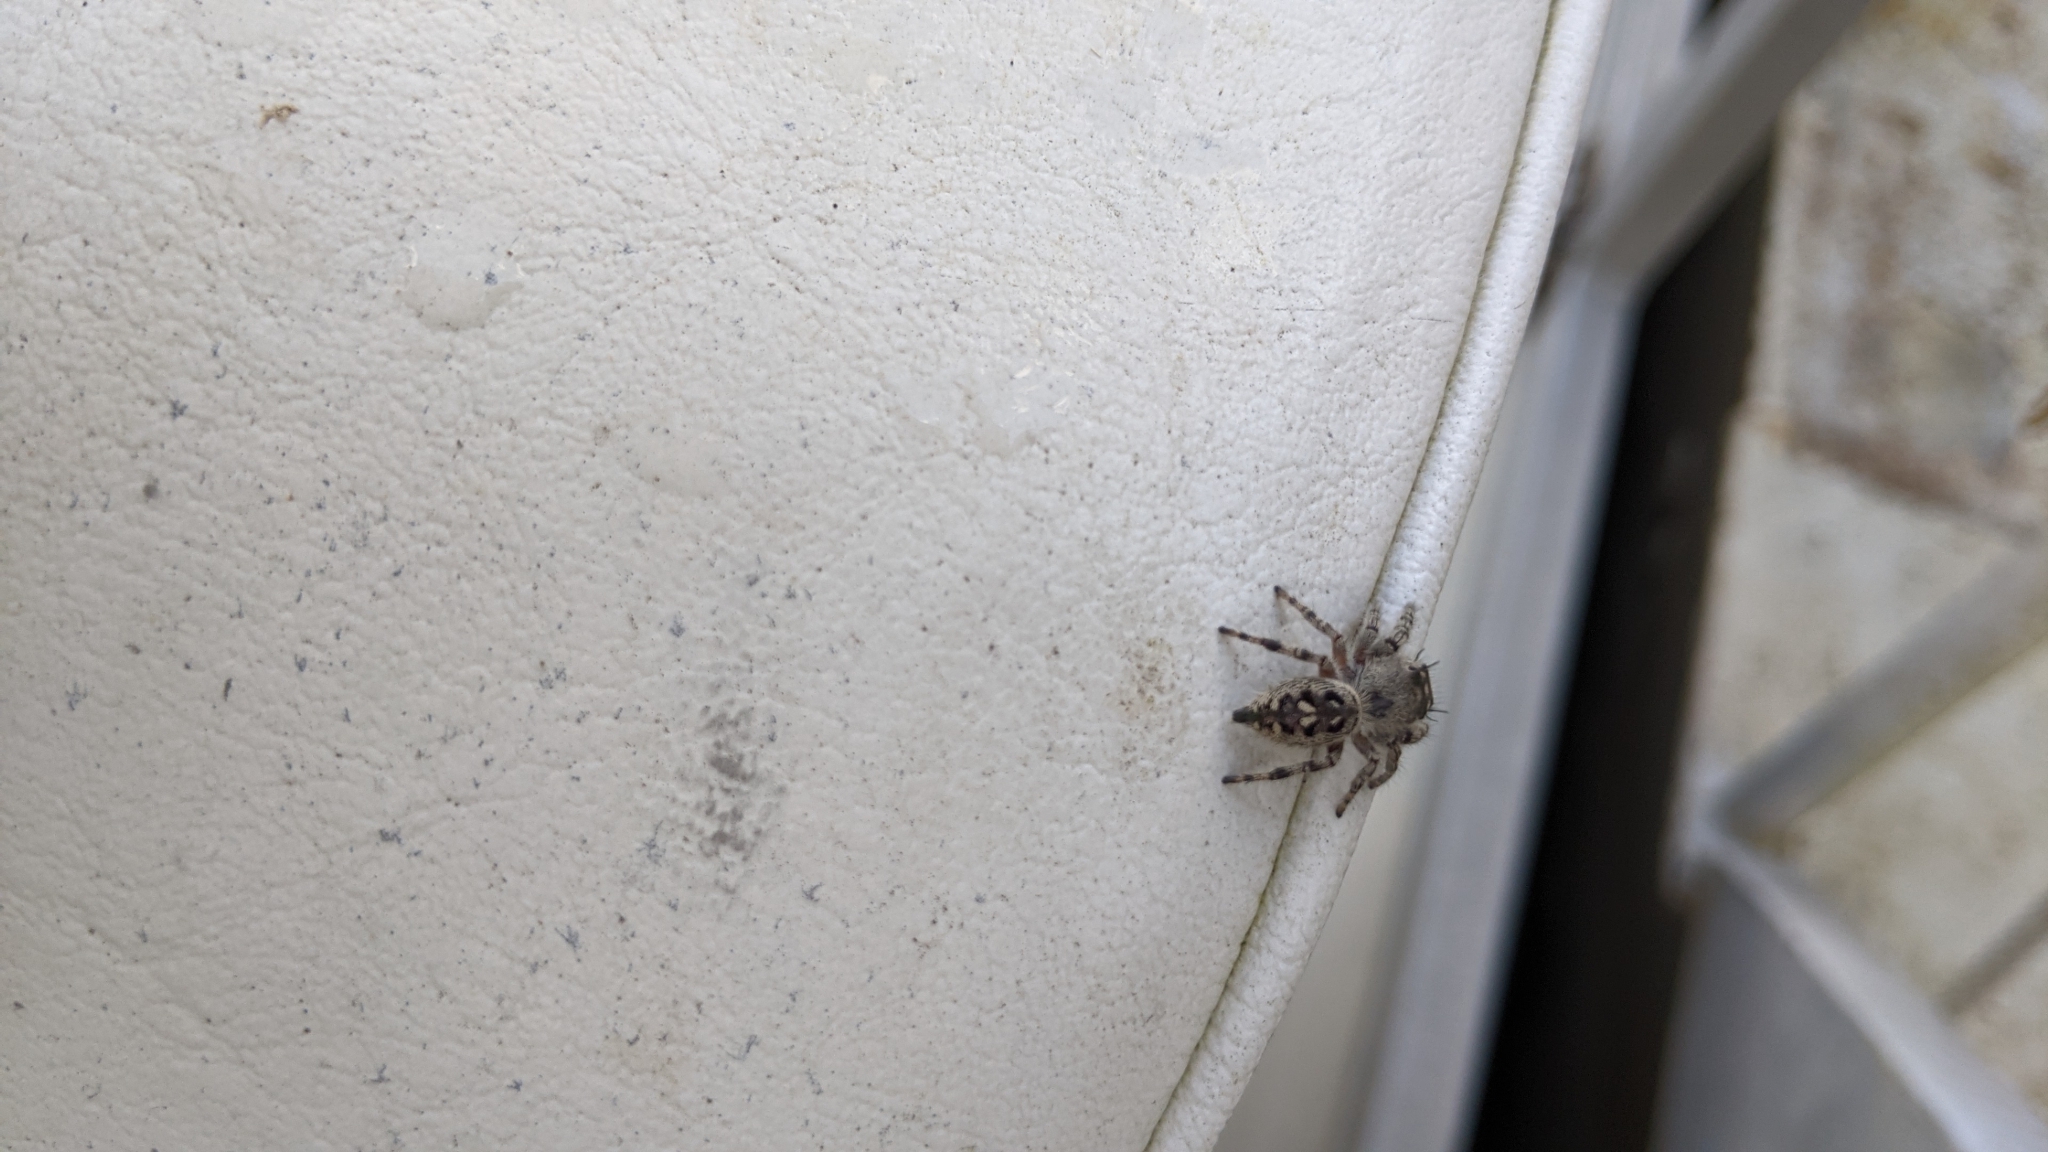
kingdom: Animalia
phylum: Arthropoda
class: Arachnida
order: Araneae
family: Salticidae
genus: Phidippus
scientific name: Phidippus otiosus
